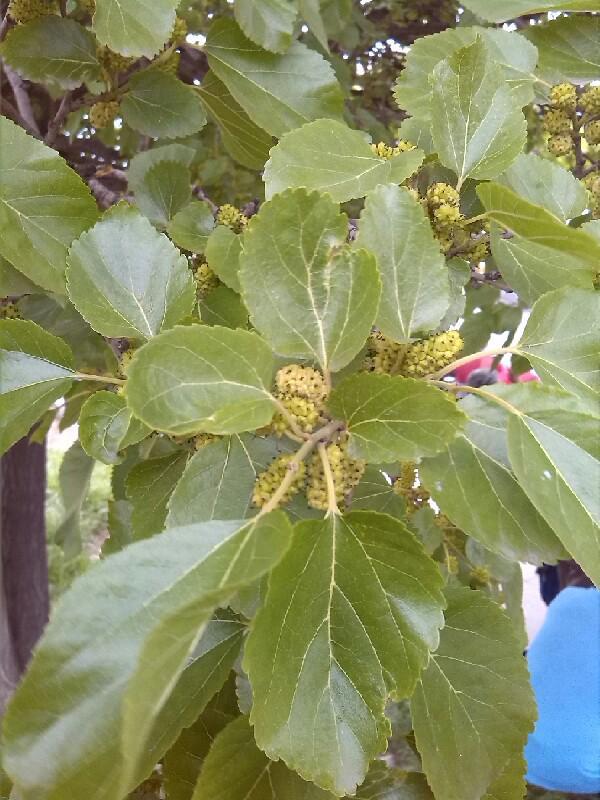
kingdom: Plantae
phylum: Tracheophyta
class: Magnoliopsida
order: Rosales
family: Moraceae
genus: Morus
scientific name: Morus alba
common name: White mulberry
